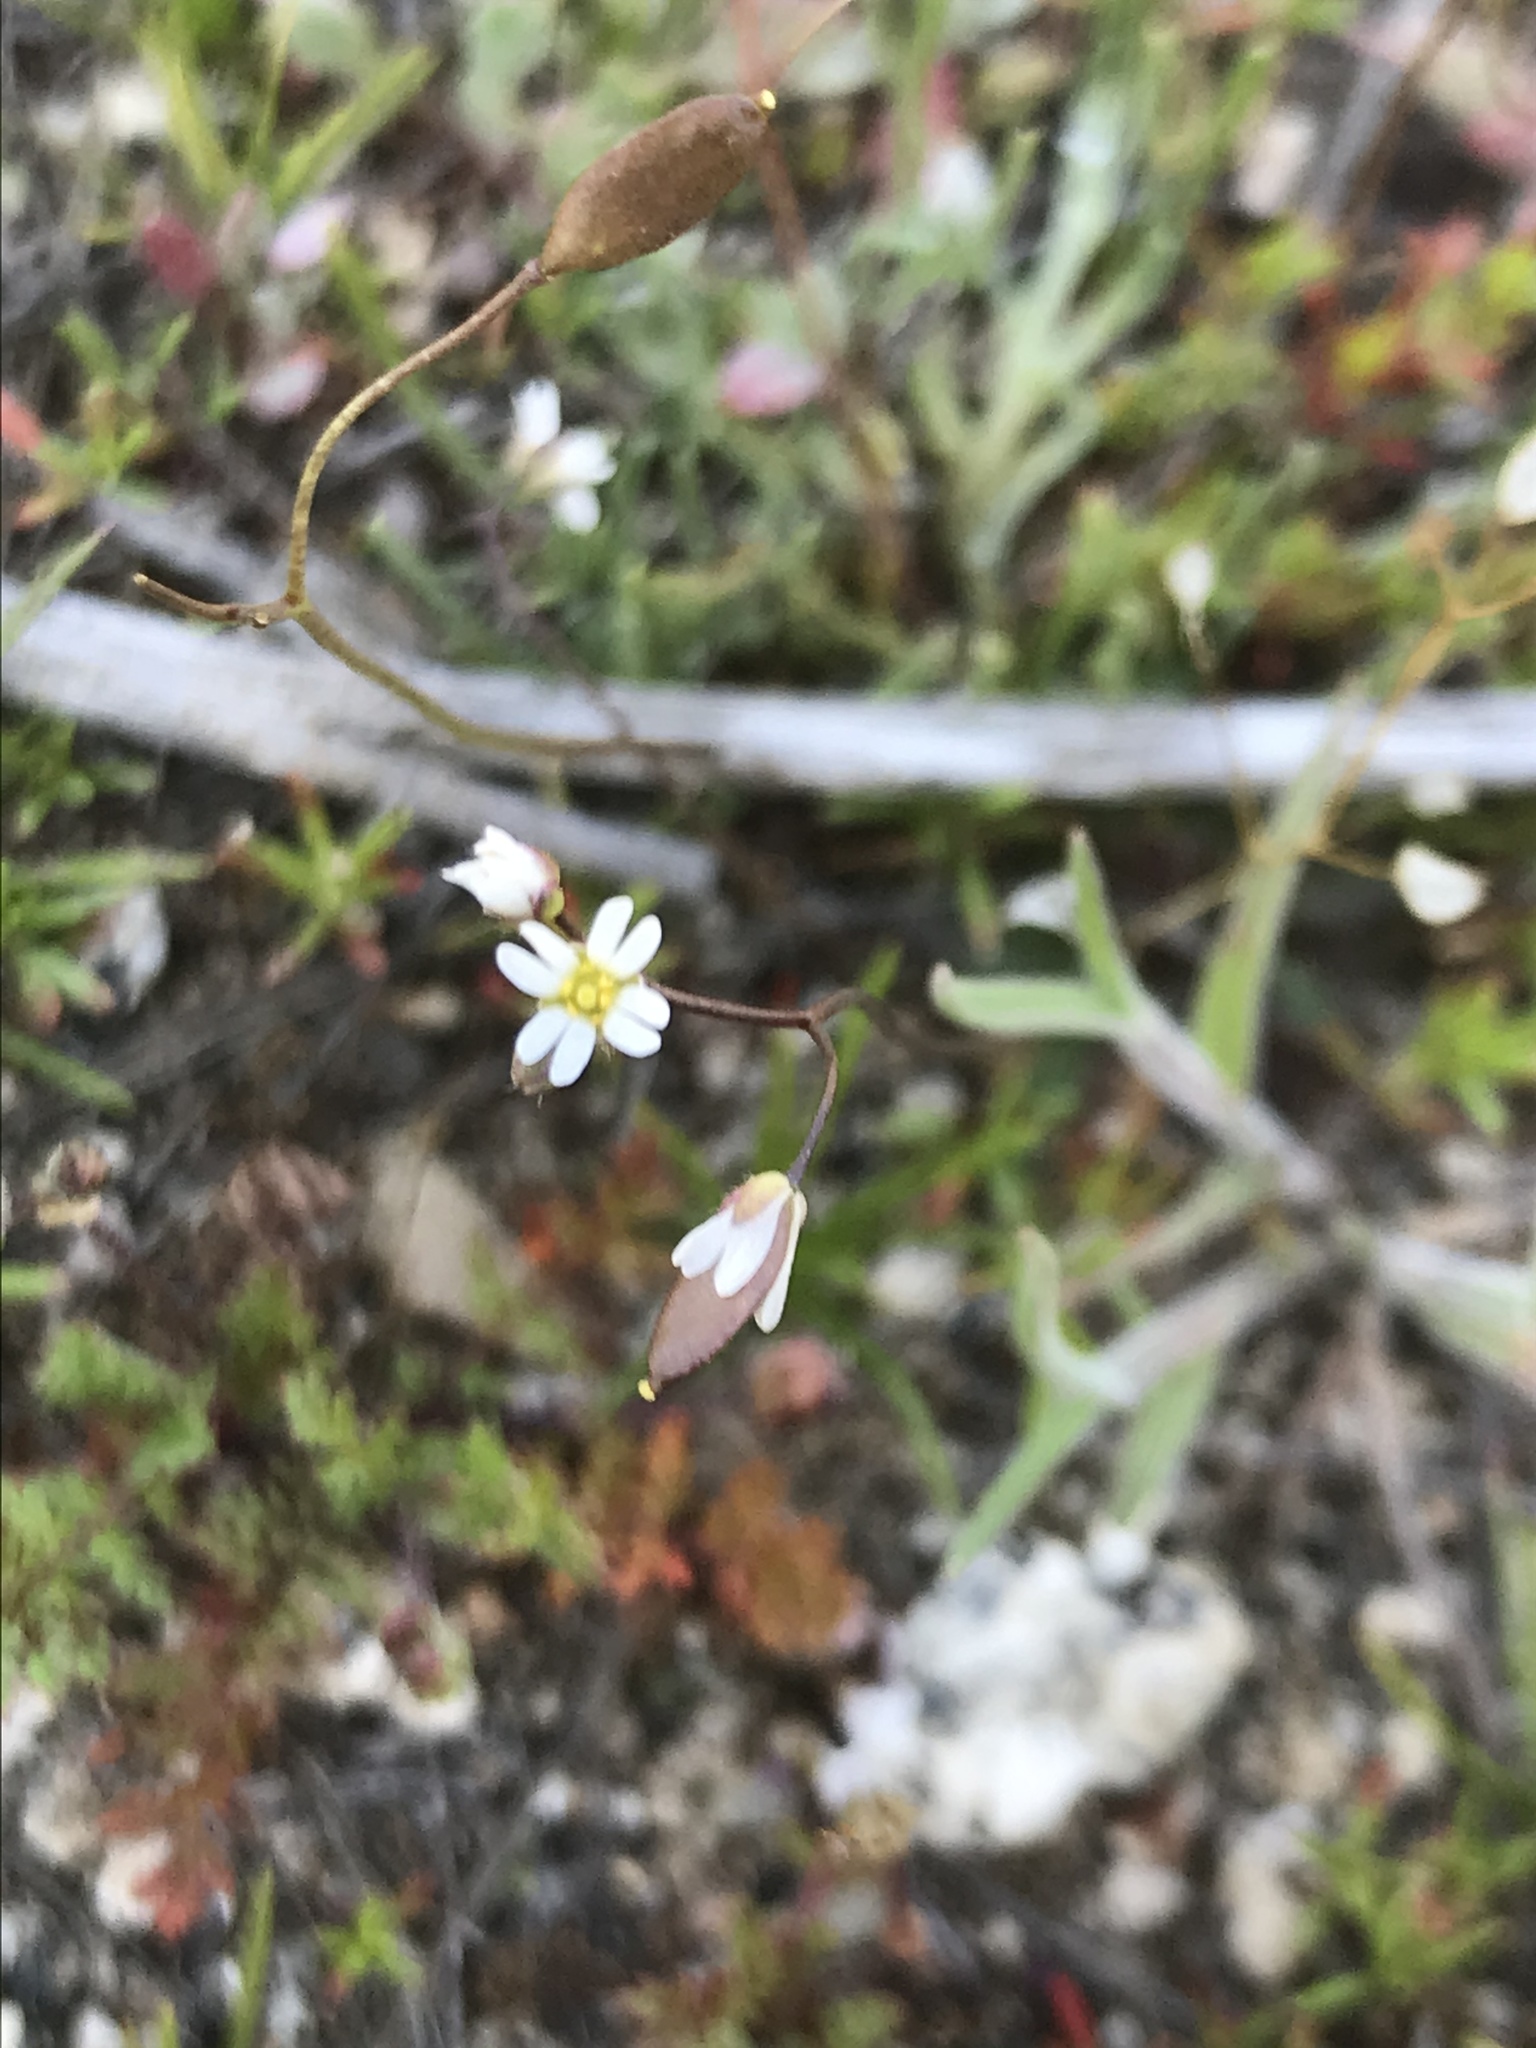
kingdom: Plantae
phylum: Tracheophyta
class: Magnoliopsida
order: Brassicales
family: Brassicaceae
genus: Draba
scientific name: Draba verna
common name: Spring draba
